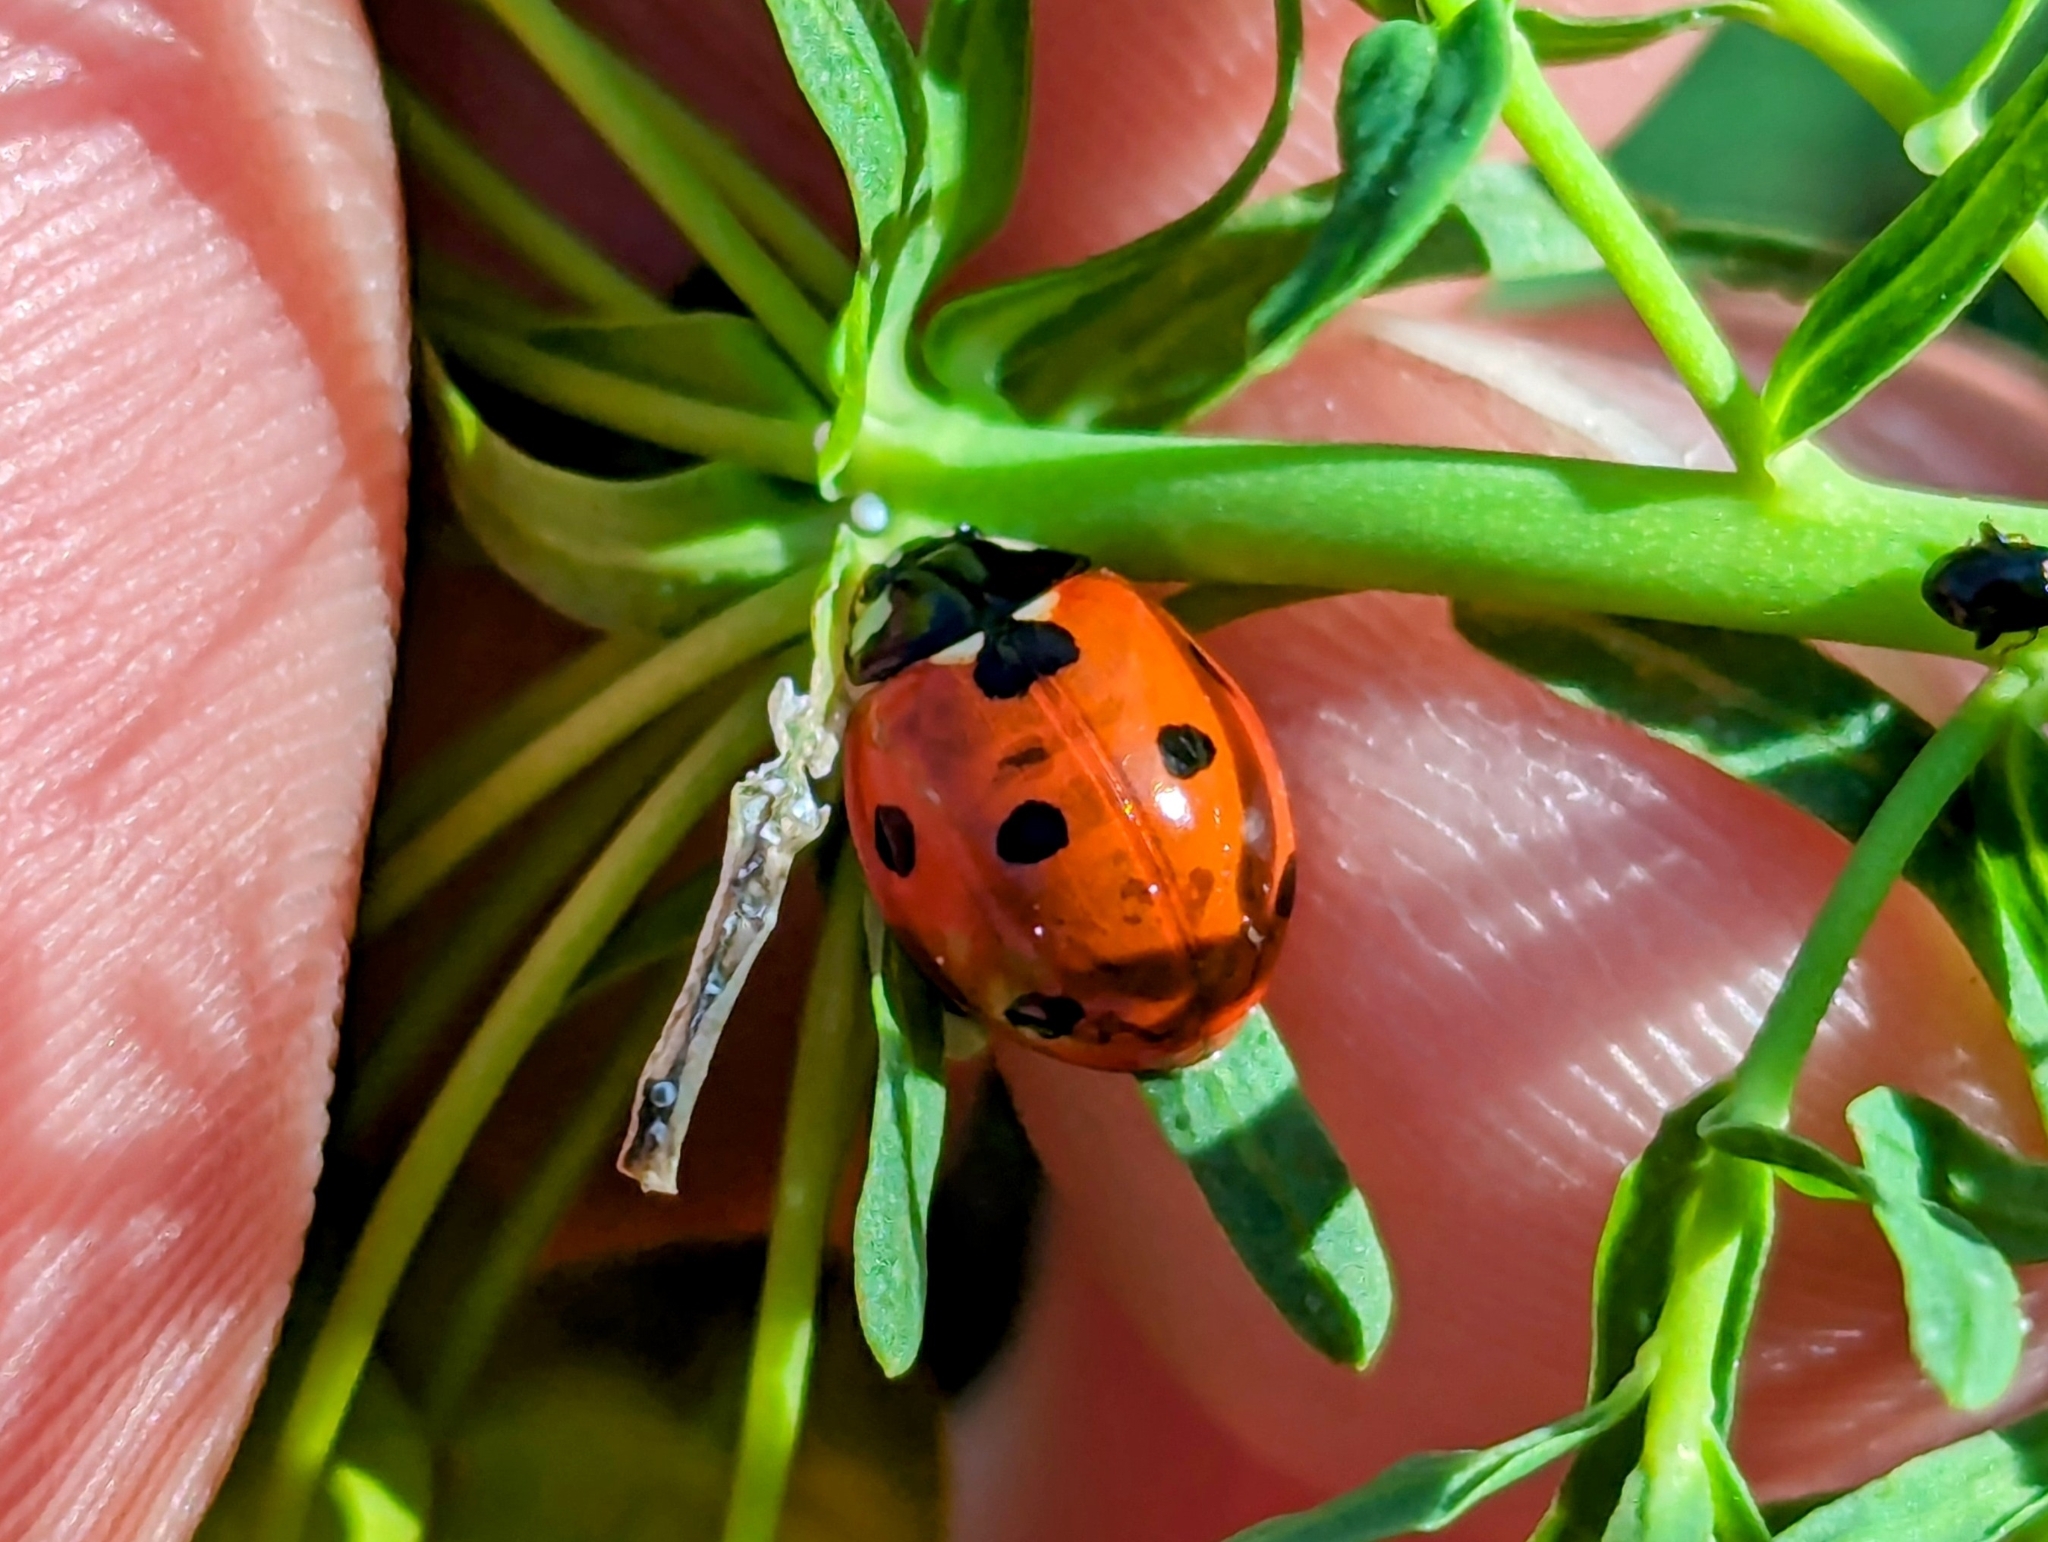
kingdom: Animalia
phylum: Arthropoda
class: Insecta
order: Coleoptera
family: Coccinellidae
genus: Coccinella
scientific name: Coccinella septempunctata
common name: Sevenspotted lady beetle
